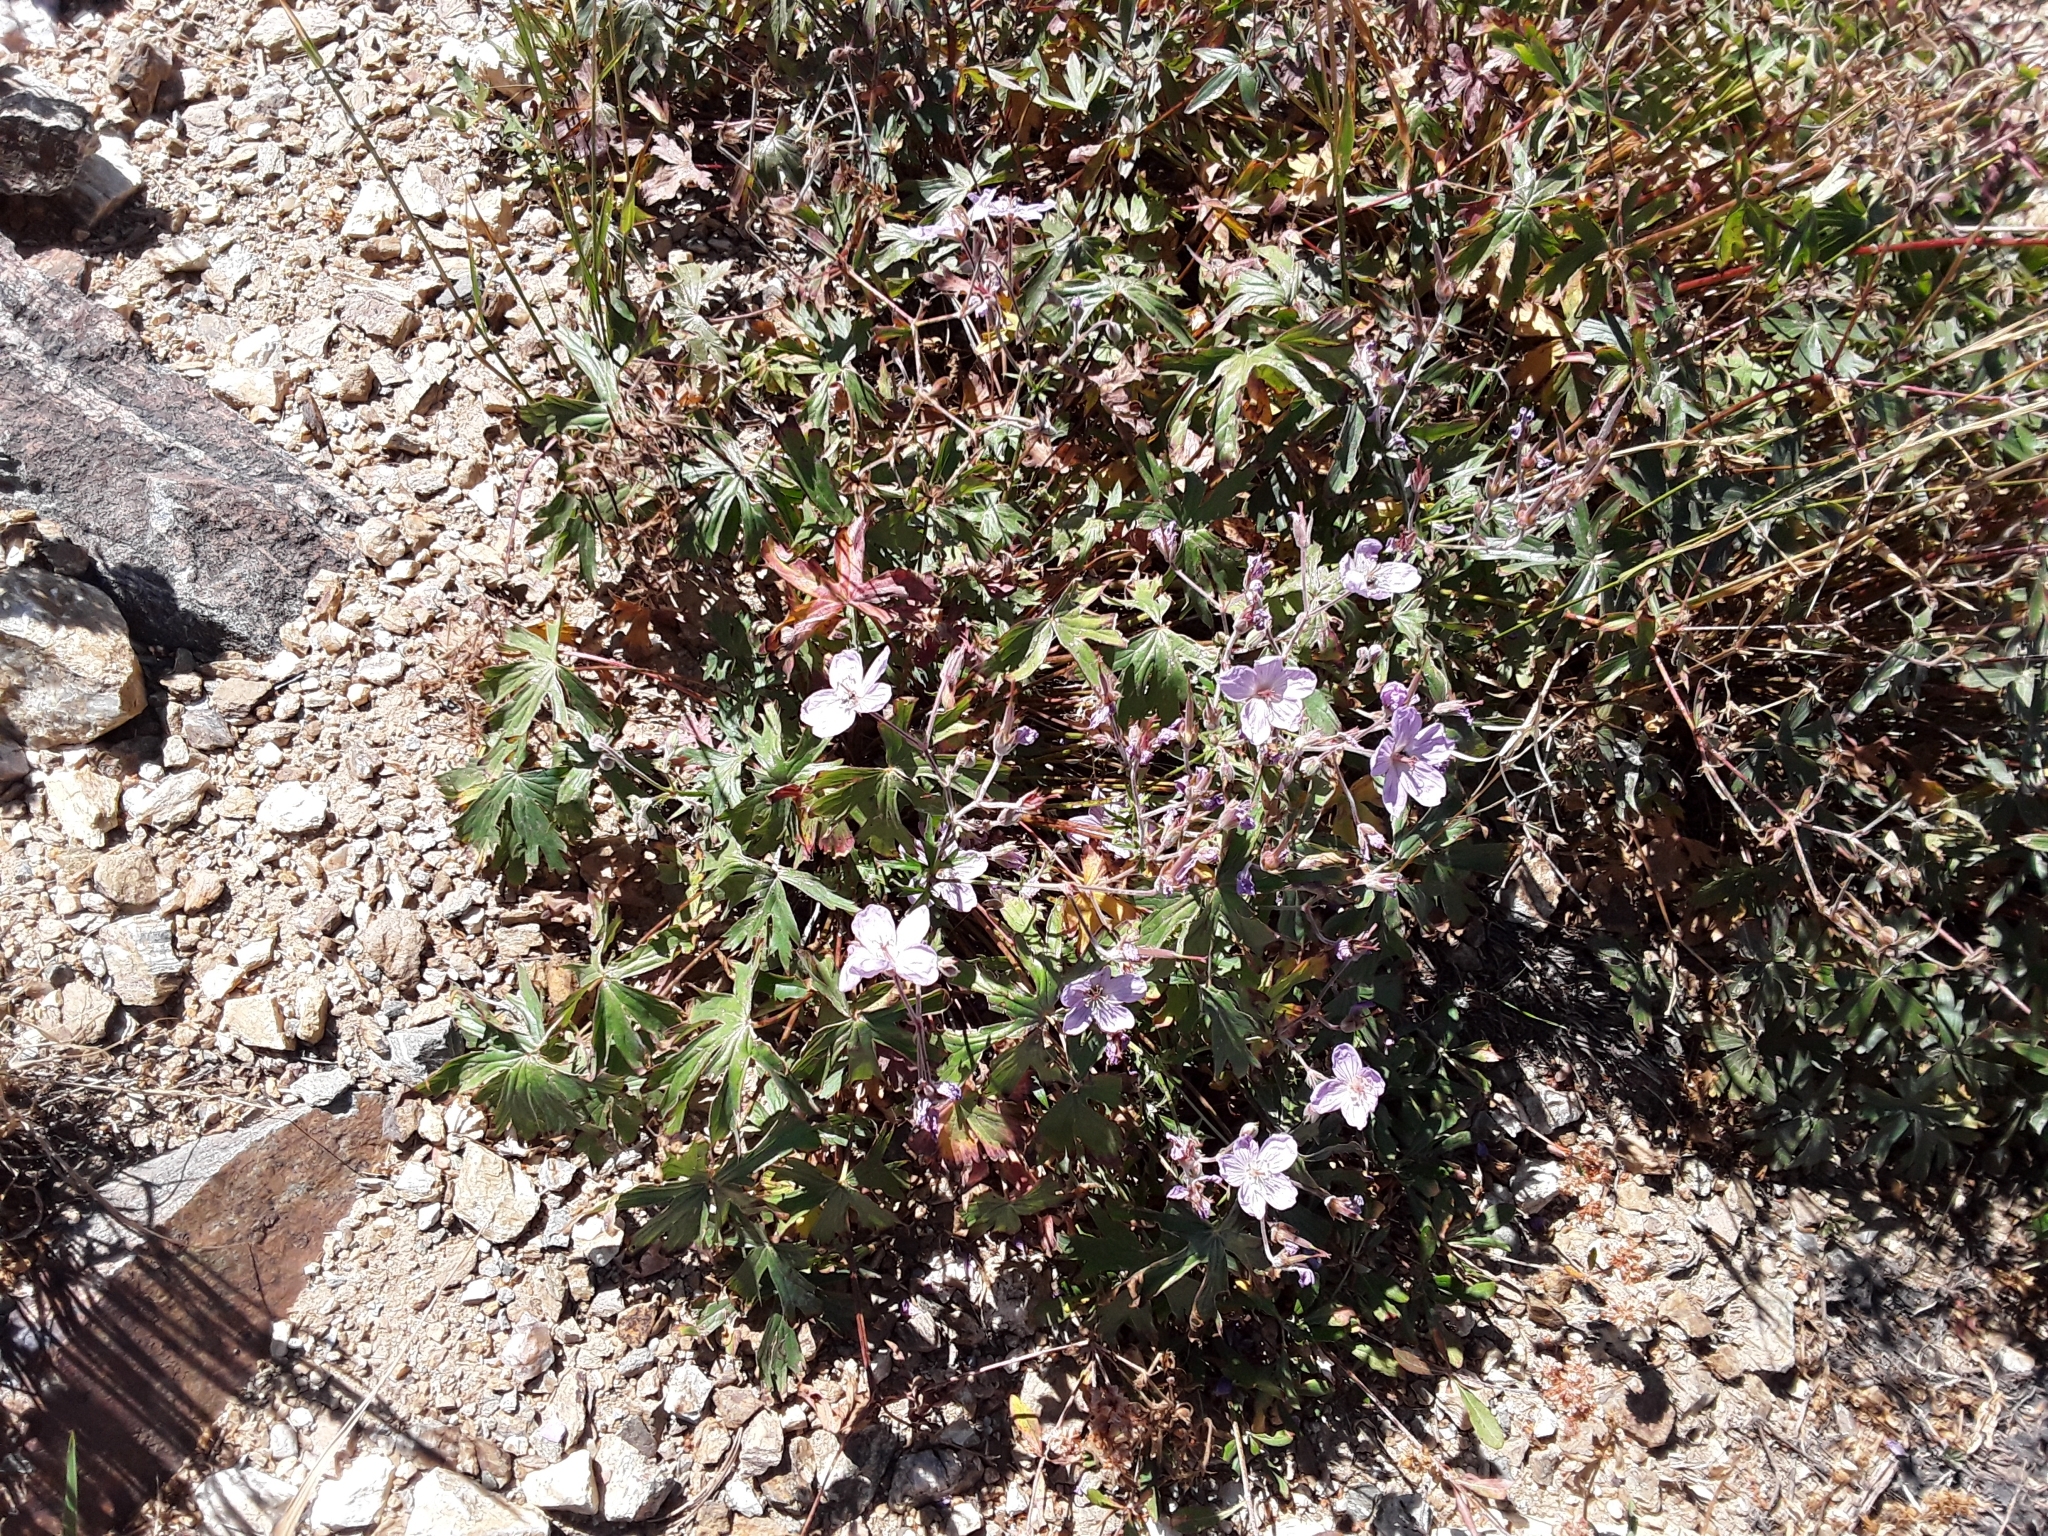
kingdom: Plantae
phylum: Tracheophyta
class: Magnoliopsida
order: Geraniales
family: Geraniaceae
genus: Geranium
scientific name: Geranium viscosissimum
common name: Purple geranium
